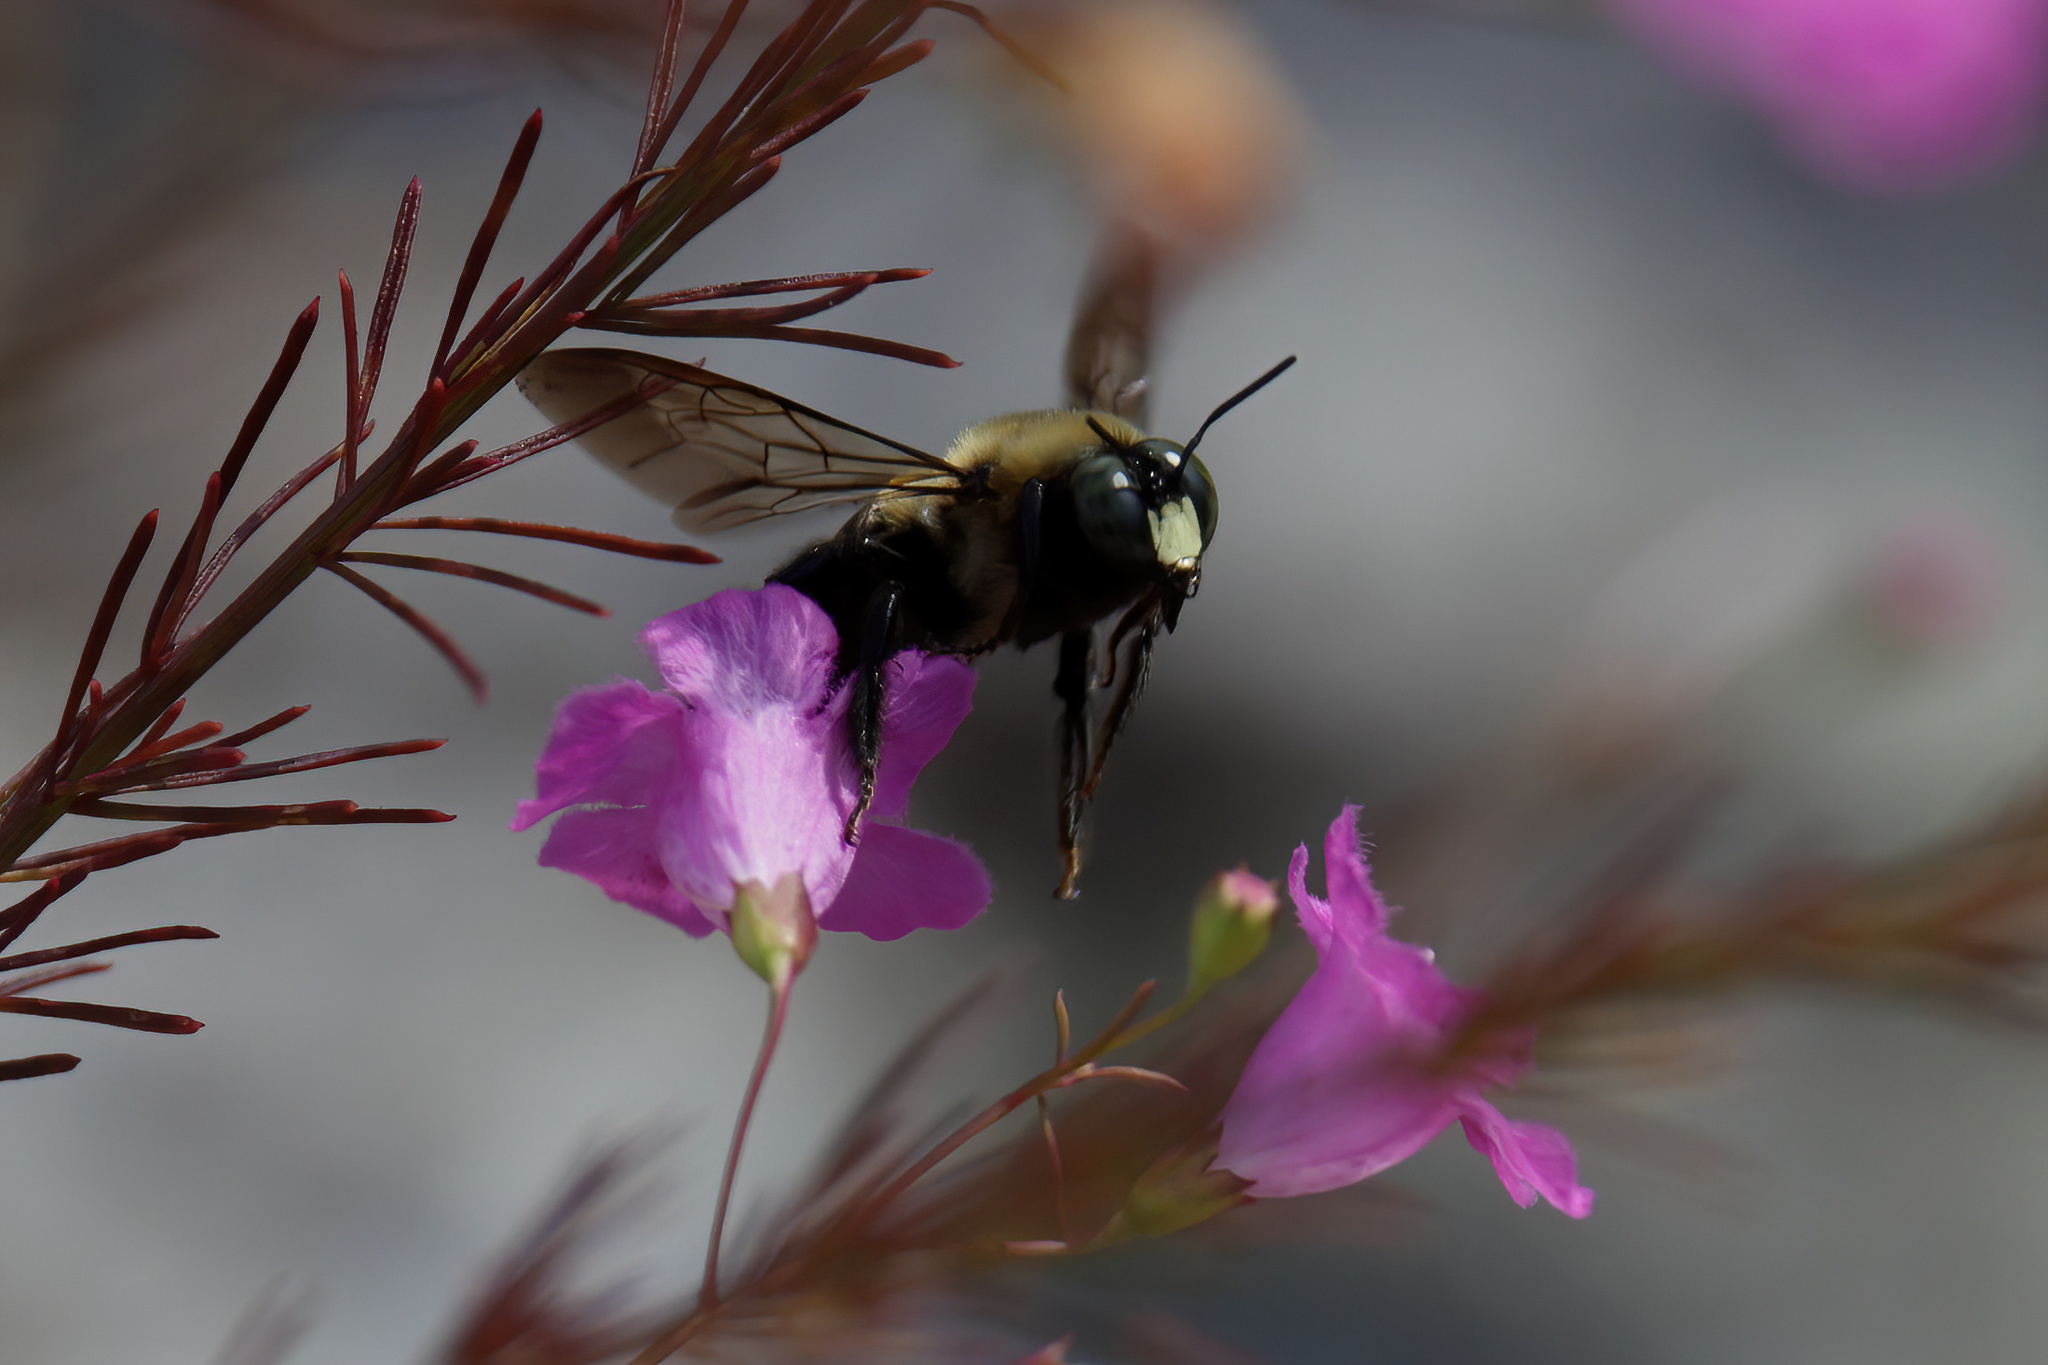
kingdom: Animalia
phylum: Arthropoda
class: Insecta
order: Hymenoptera
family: Apidae
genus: Xylocopa
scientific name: Xylocopa virginica
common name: Carpenter bee
